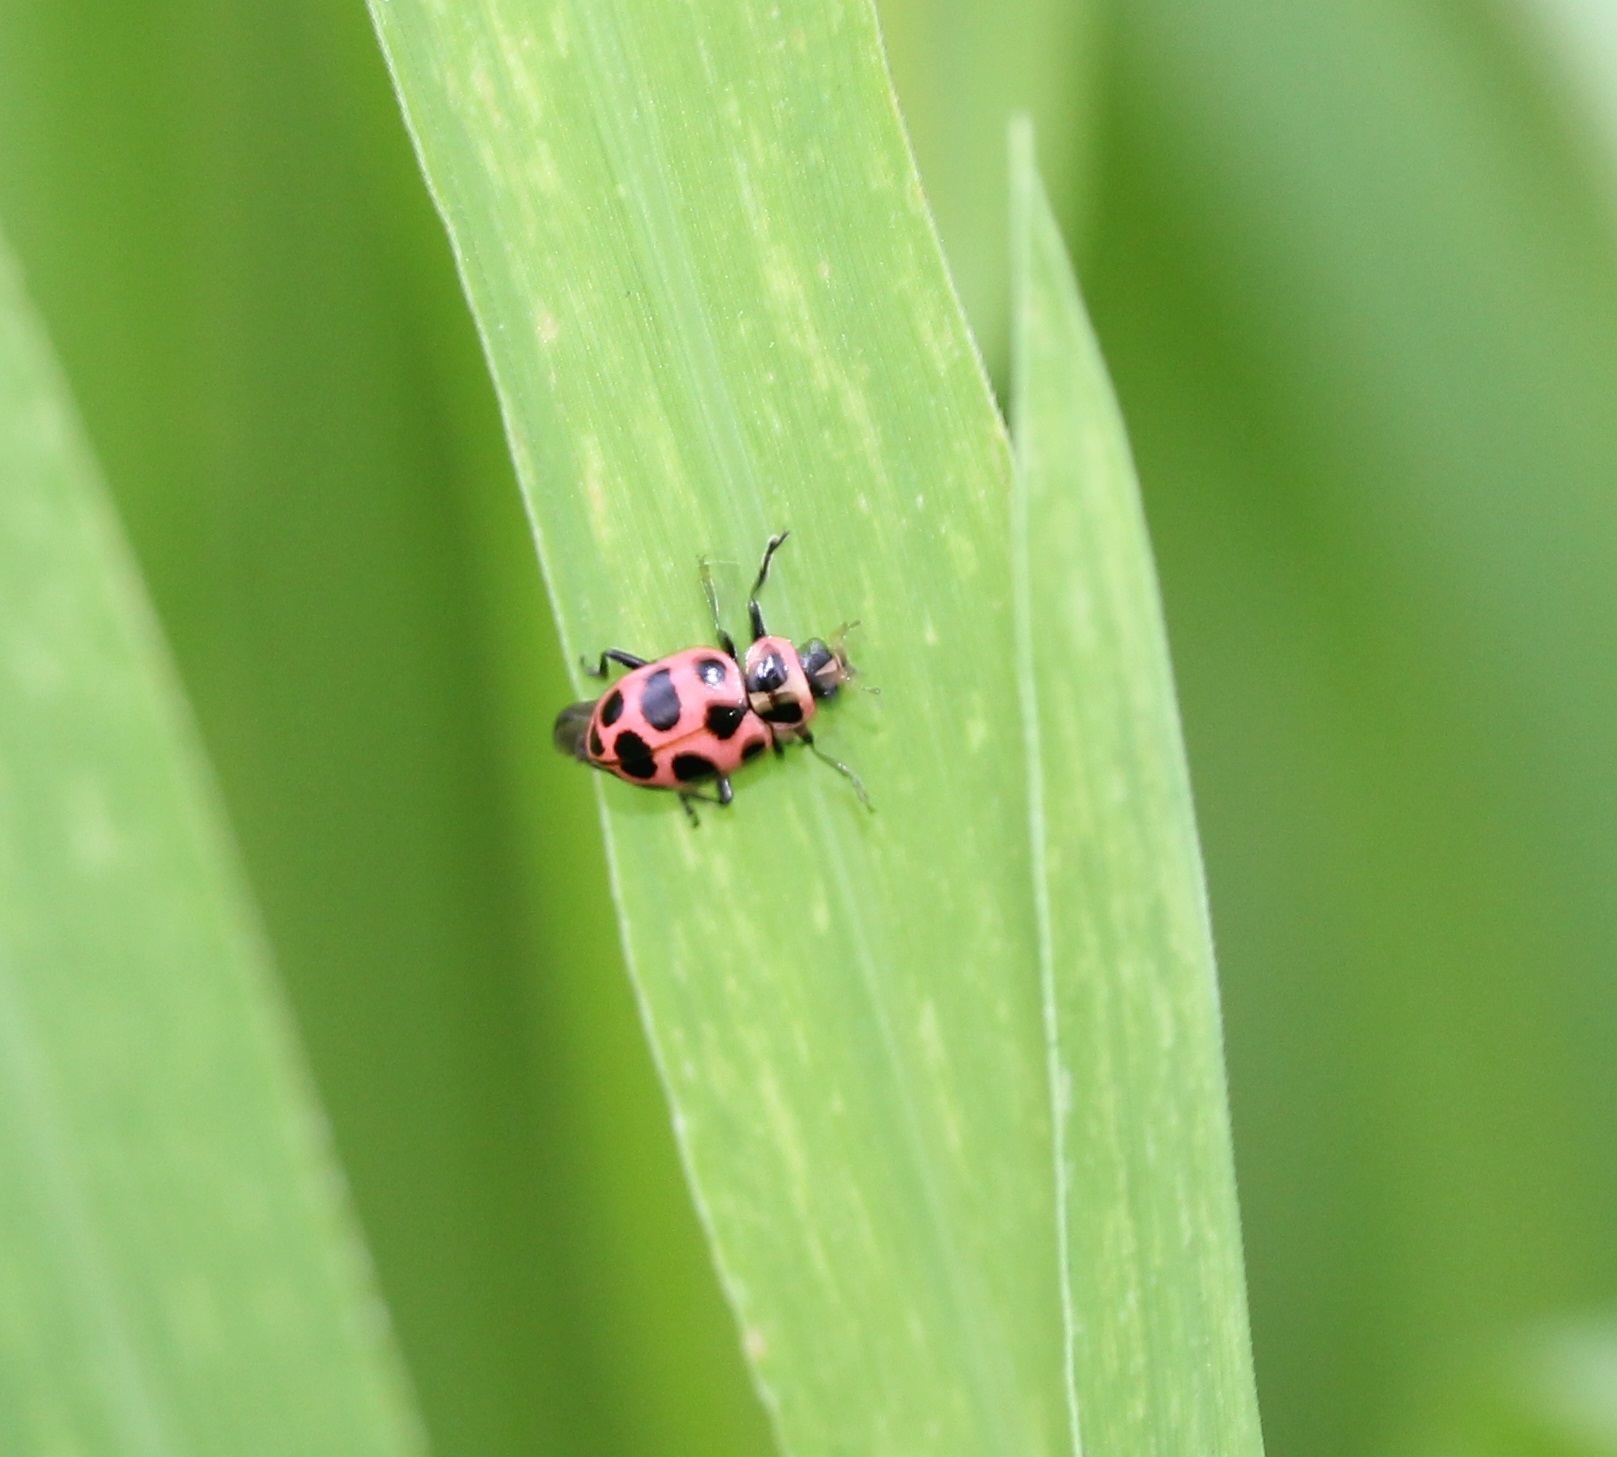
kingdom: Animalia
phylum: Arthropoda
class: Insecta
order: Coleoptera
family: Coccinellidae
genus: Coleomegilla
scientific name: Coleomegilla maculata
